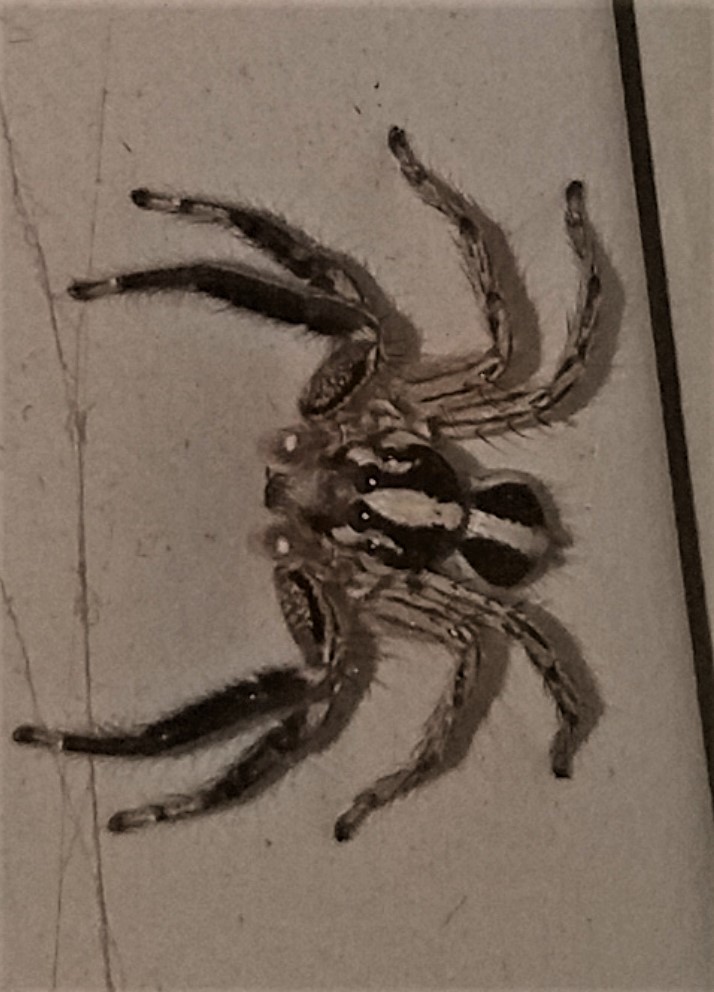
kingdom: Animalia
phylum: Arthropoda
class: Arachnida
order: Araneae
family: Salticidae
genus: Plexippus
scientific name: Plexippus paykulli
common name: Pantropical jumper
